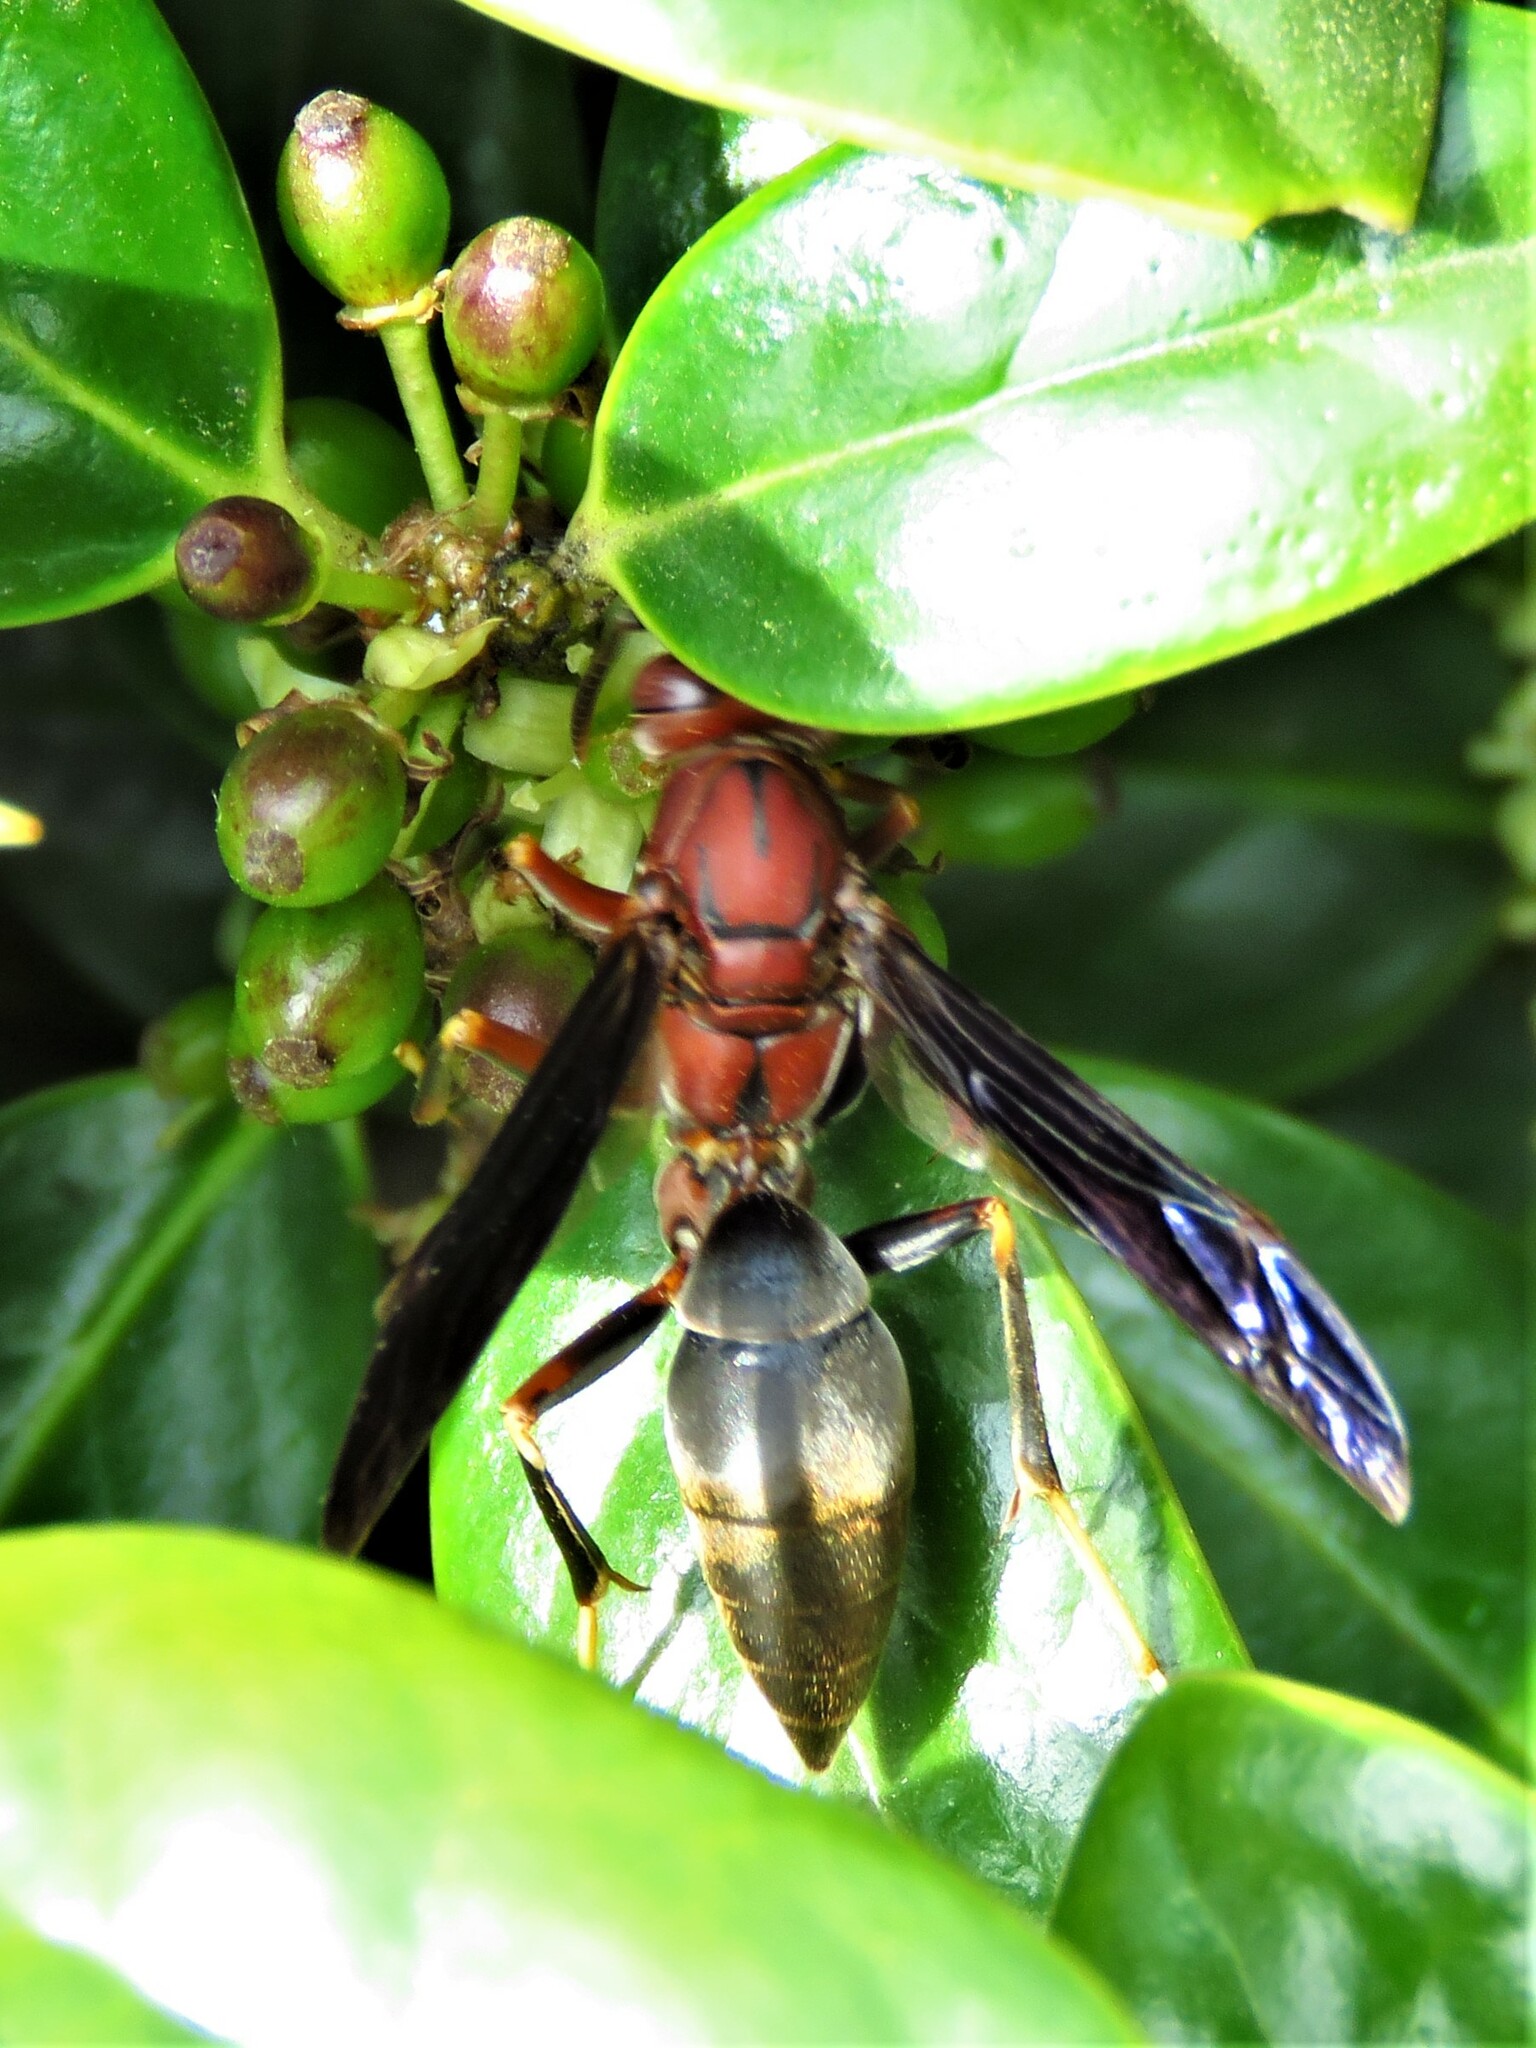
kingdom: Animalia
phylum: Arthropoda
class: Insecta
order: Hymenoptera
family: Eumenidae
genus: Polistes
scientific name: Polistes metricus
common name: Metric paper wasp
